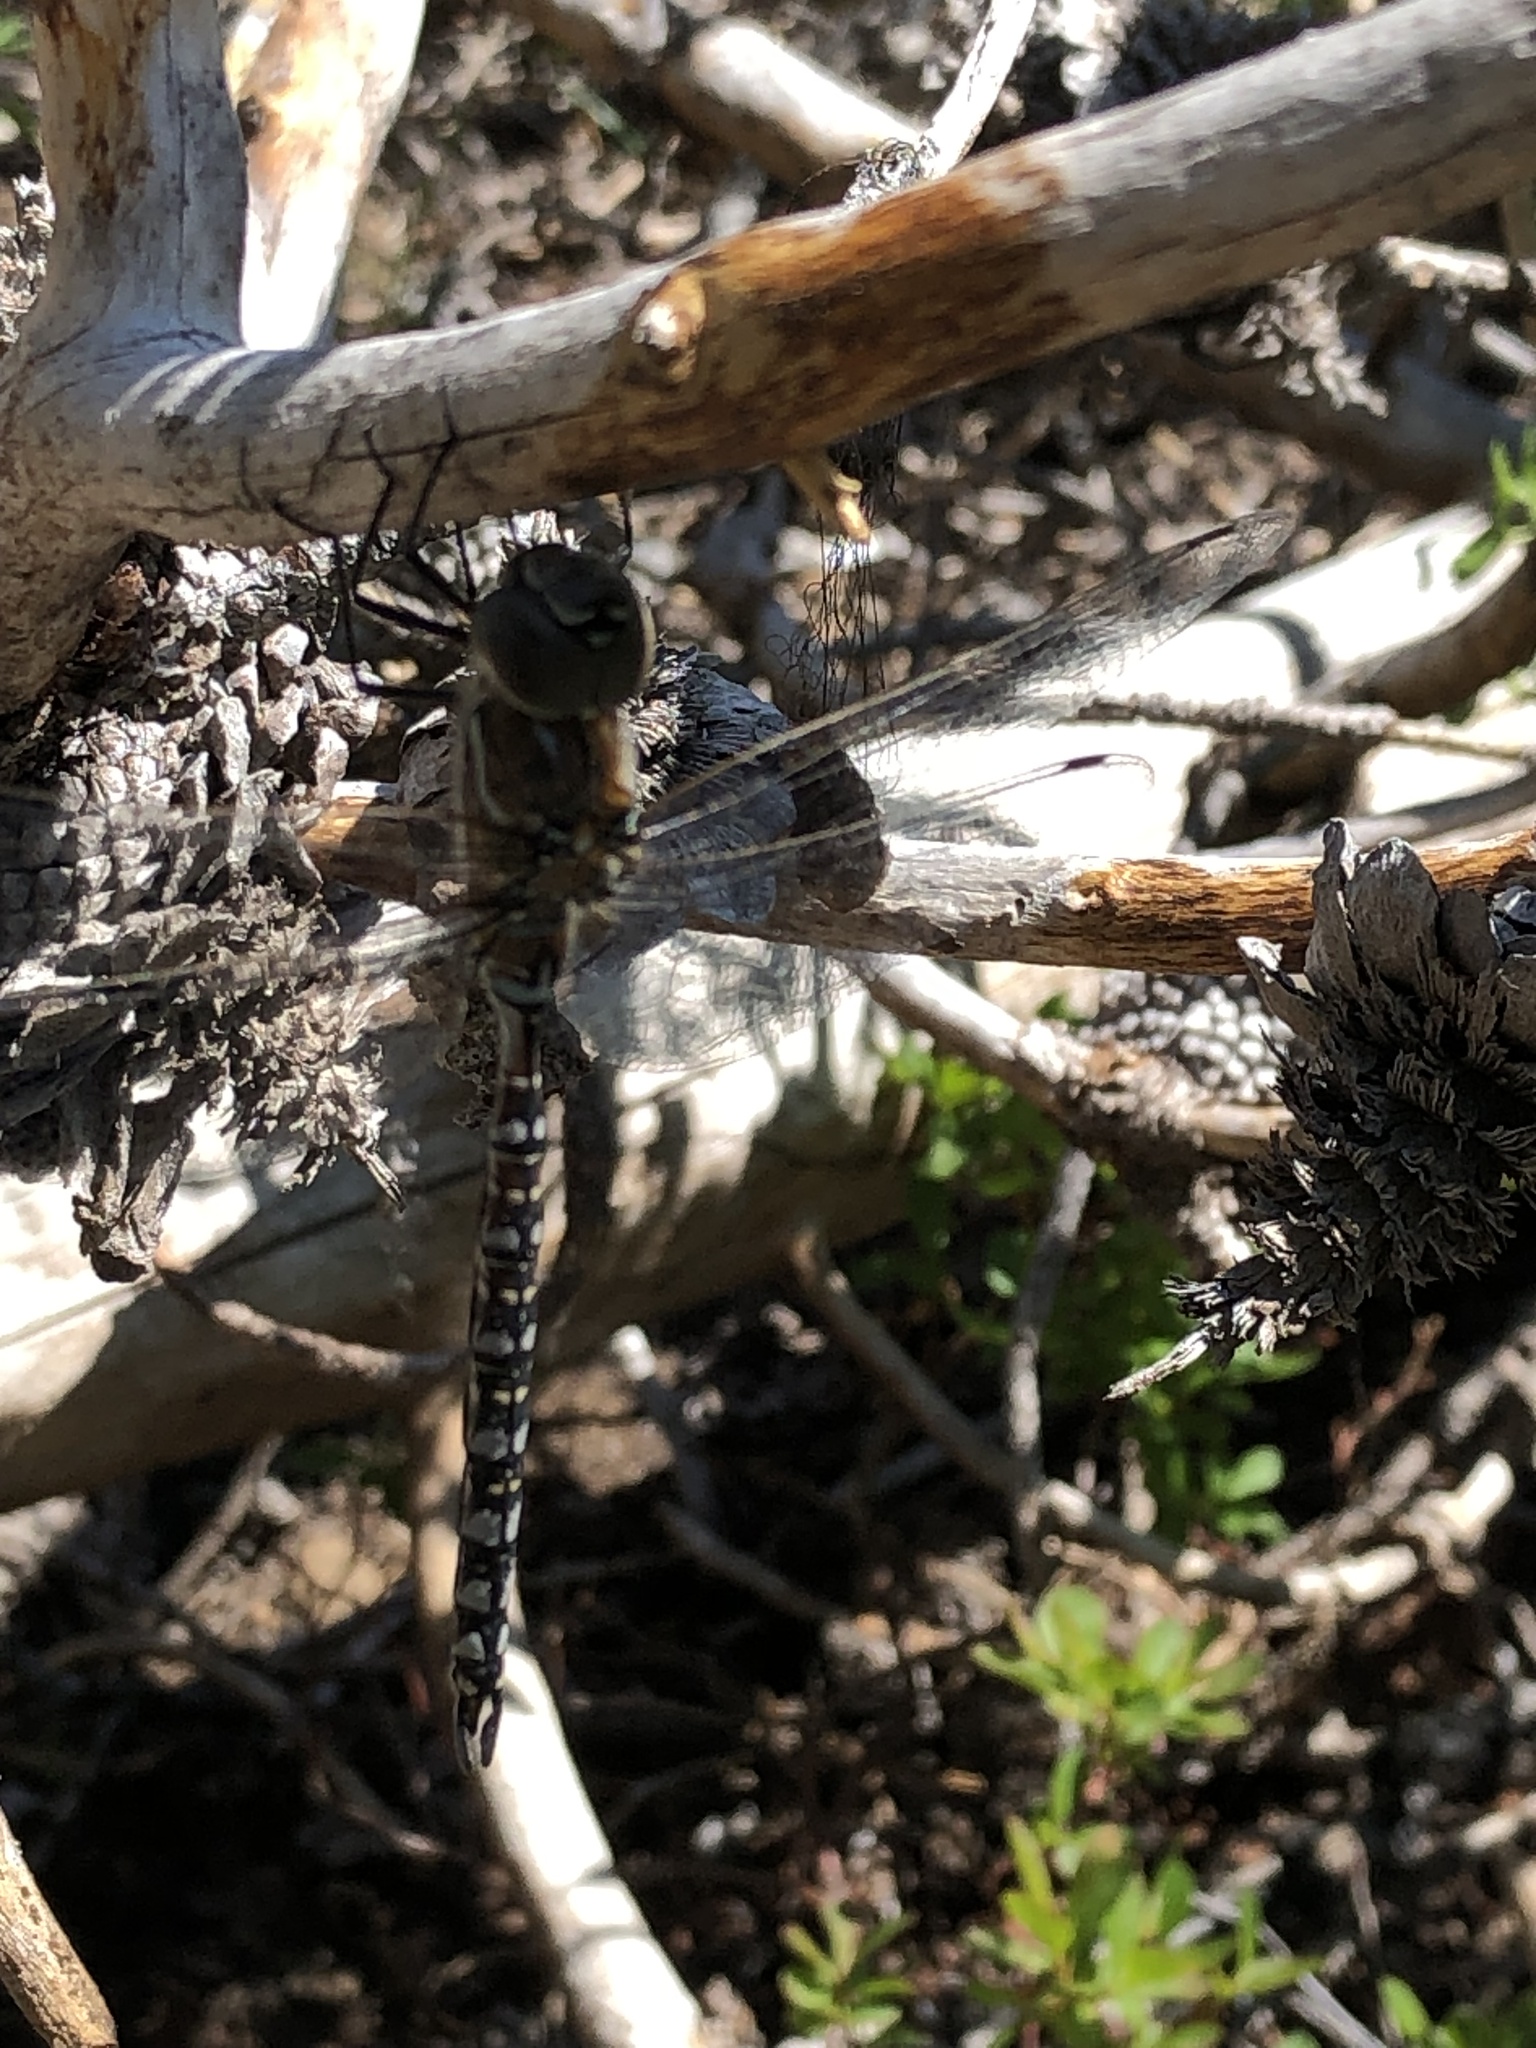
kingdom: Animalia
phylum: Arthropoda
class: Insecta
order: Odonata
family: Aeshnidae
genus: Aeshna
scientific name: Aeshna interrupta
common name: Variable darner
